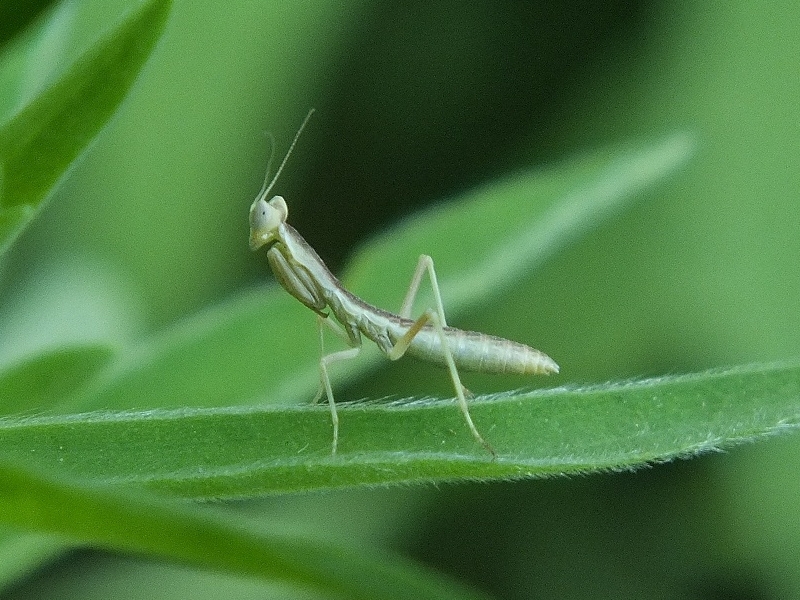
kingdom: Animalia
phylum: Arthropoda
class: Insecta
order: Mantodea
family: Eremiaphilidae
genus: Iris
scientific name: Iris polystictica
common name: Dot-winged mantis
